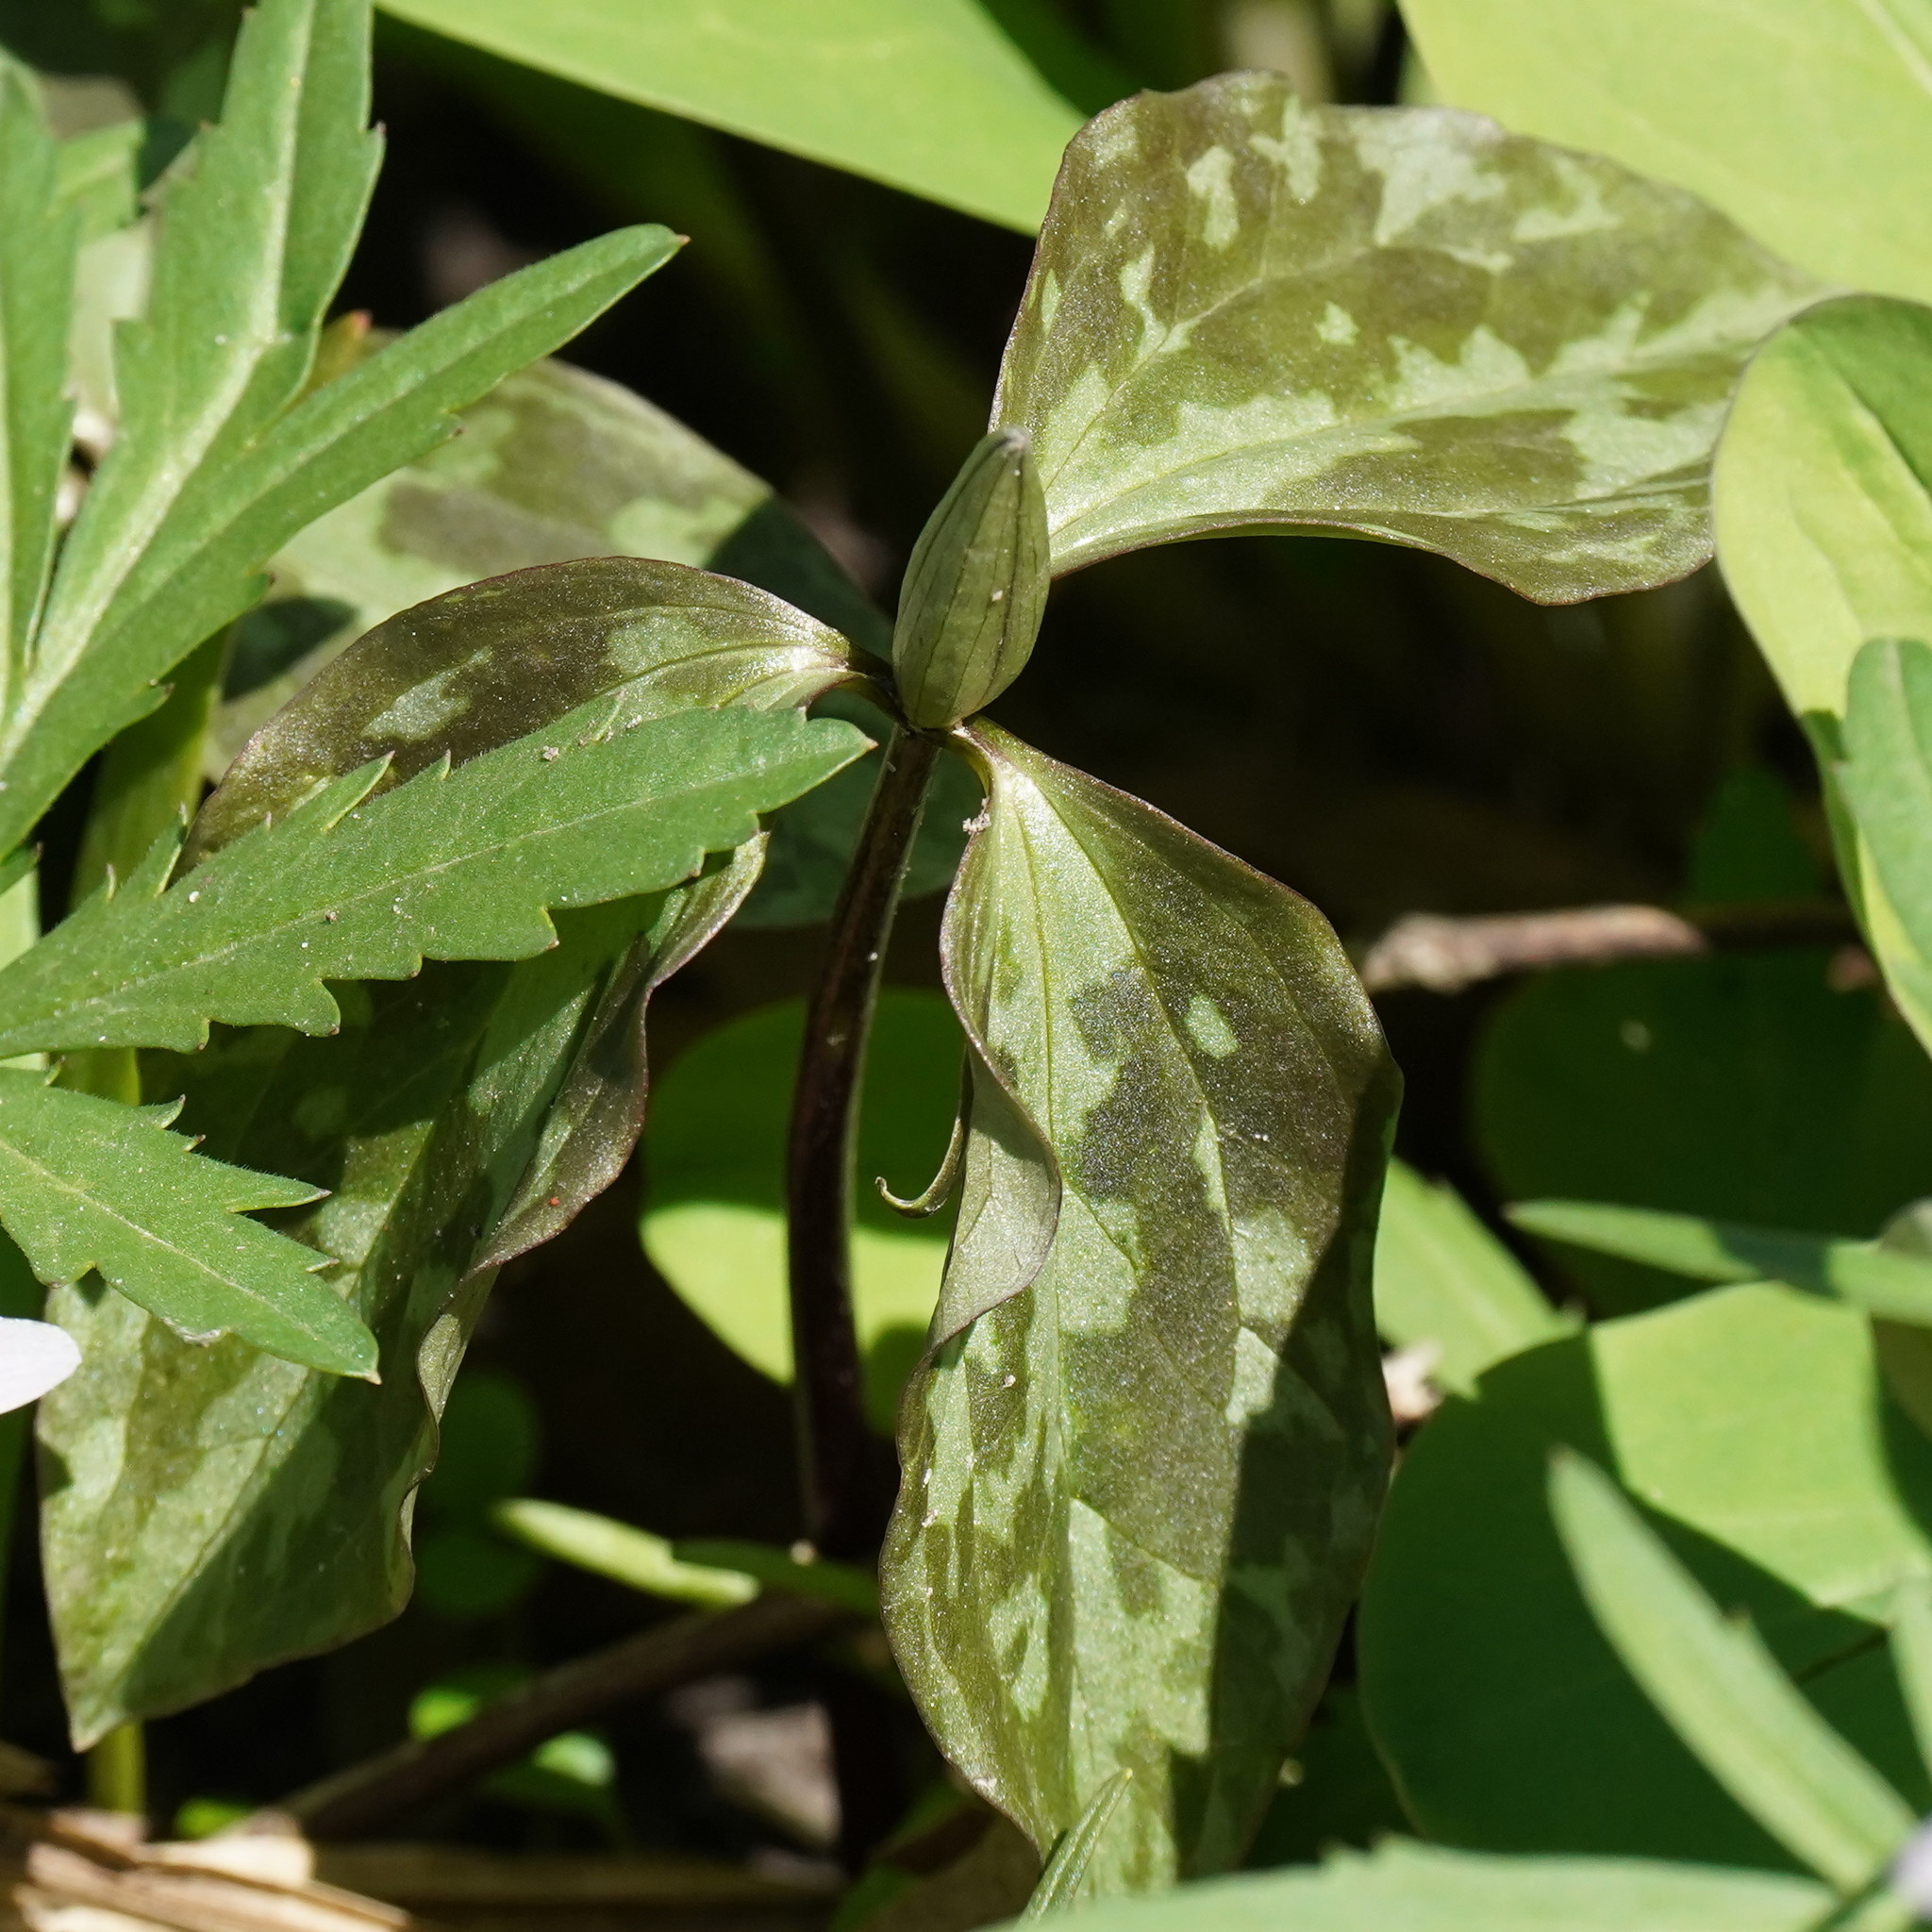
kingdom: Plantae
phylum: Tracheophyta
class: Liliopsida
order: Liliales
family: Melanthiaceae
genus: Trillium
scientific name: Trillium recurvatum
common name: Bloody butcher
